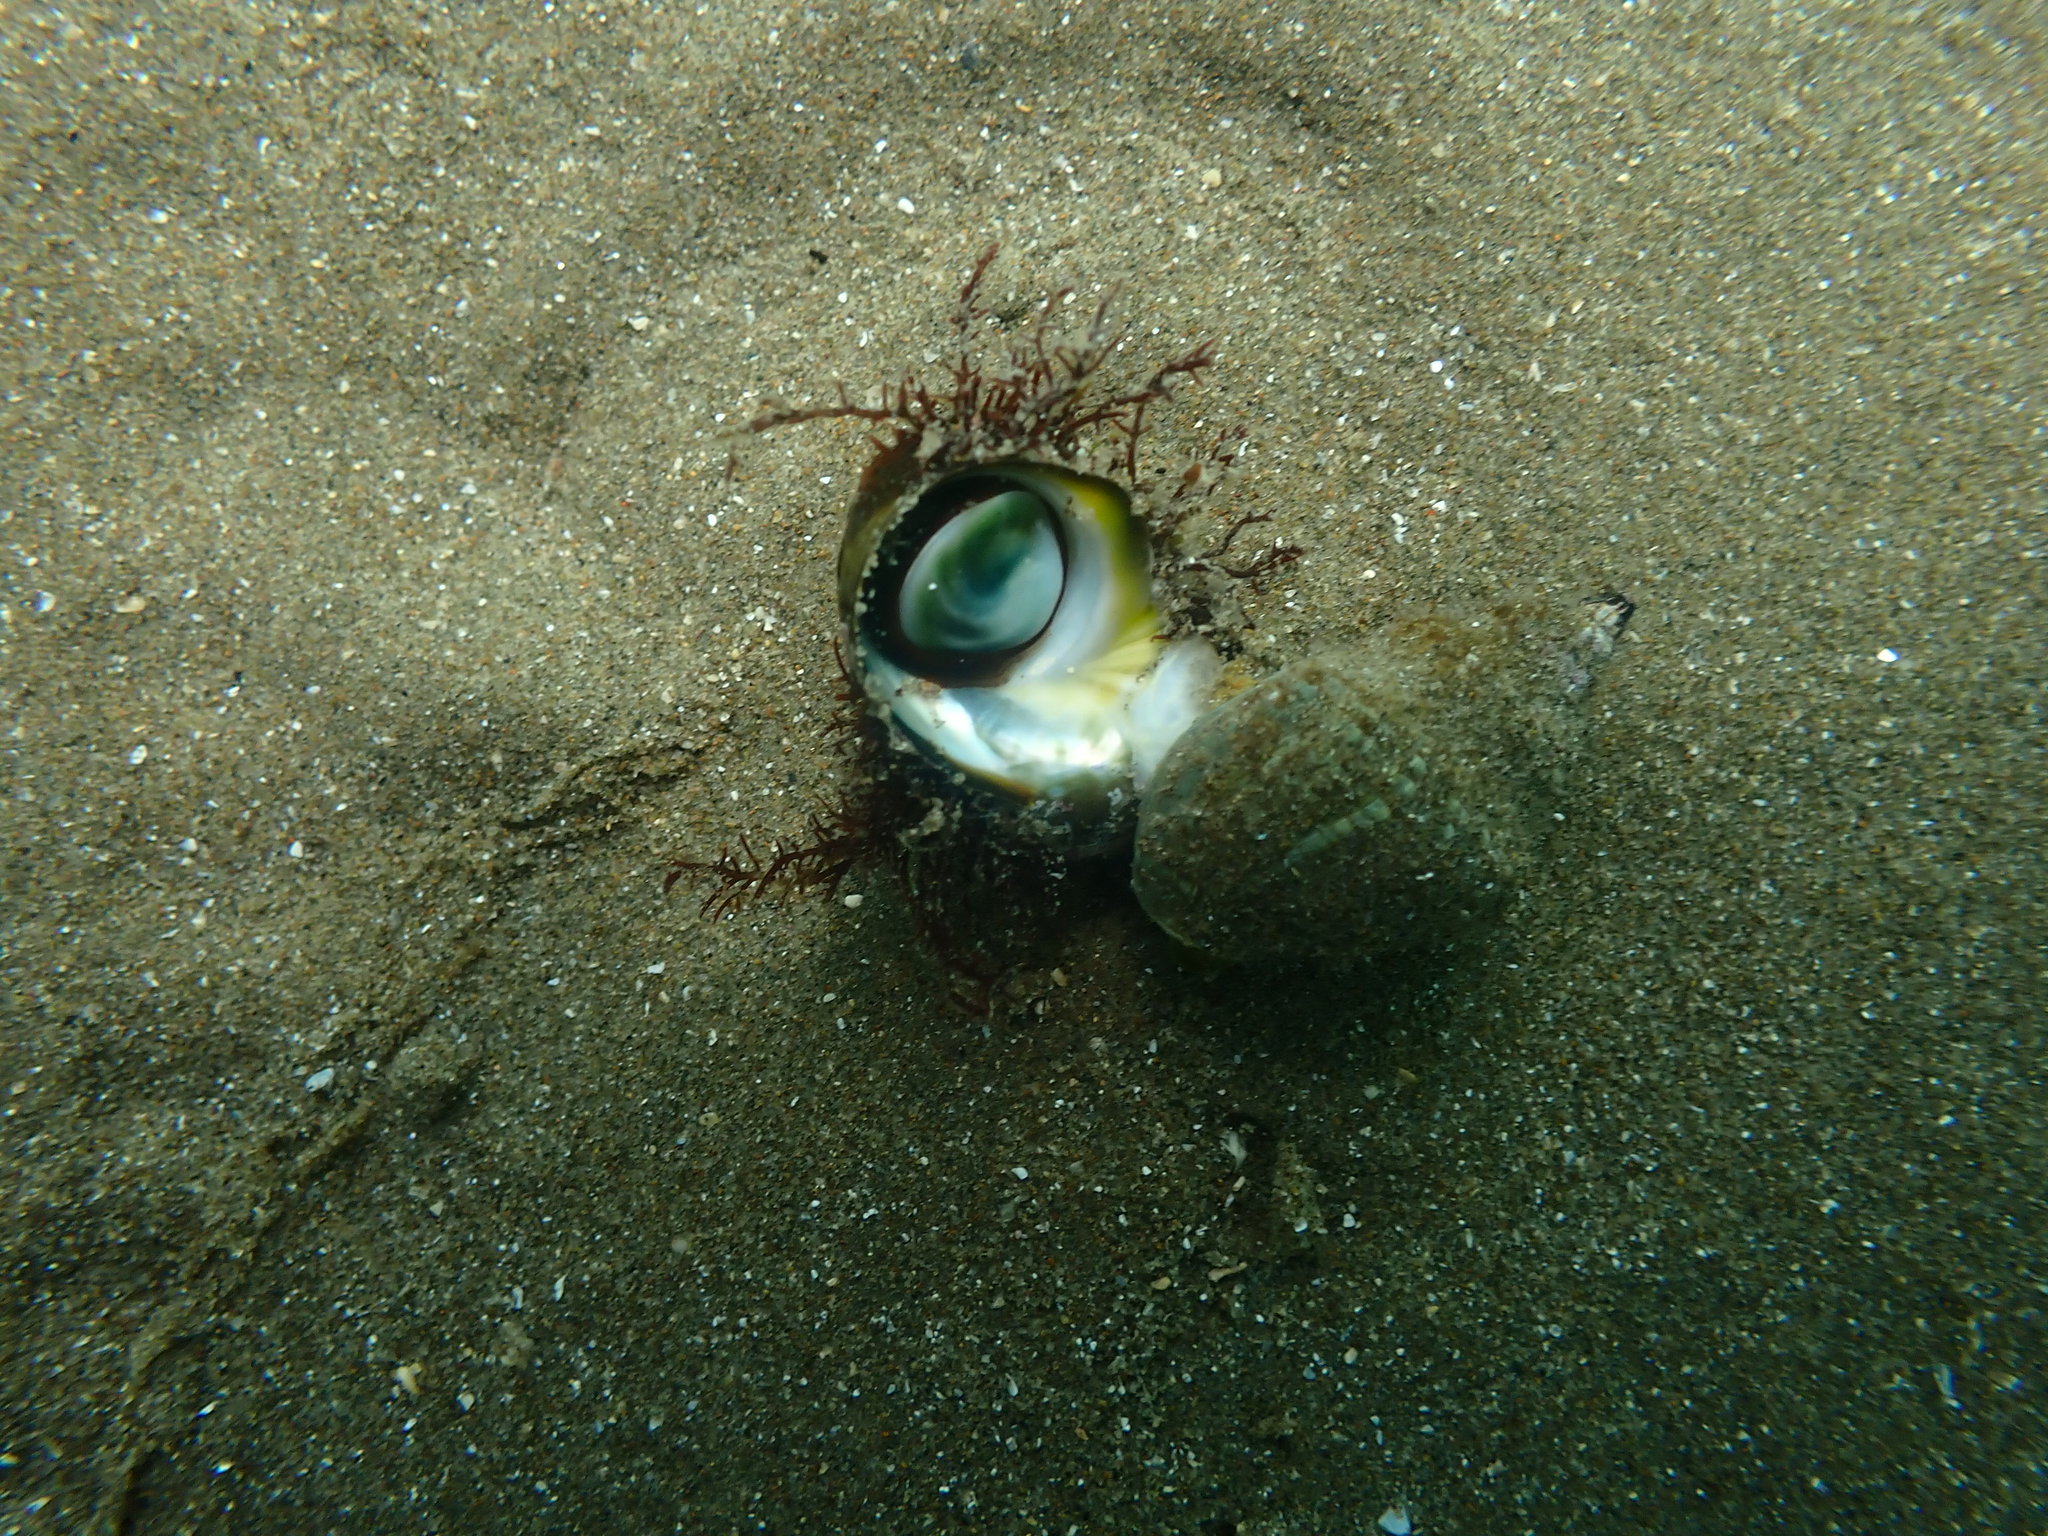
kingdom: Animalia
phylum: Mollusca
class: Gastropoda
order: Trochida
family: Turbinidae
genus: Lunella
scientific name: Lunella smaragda
